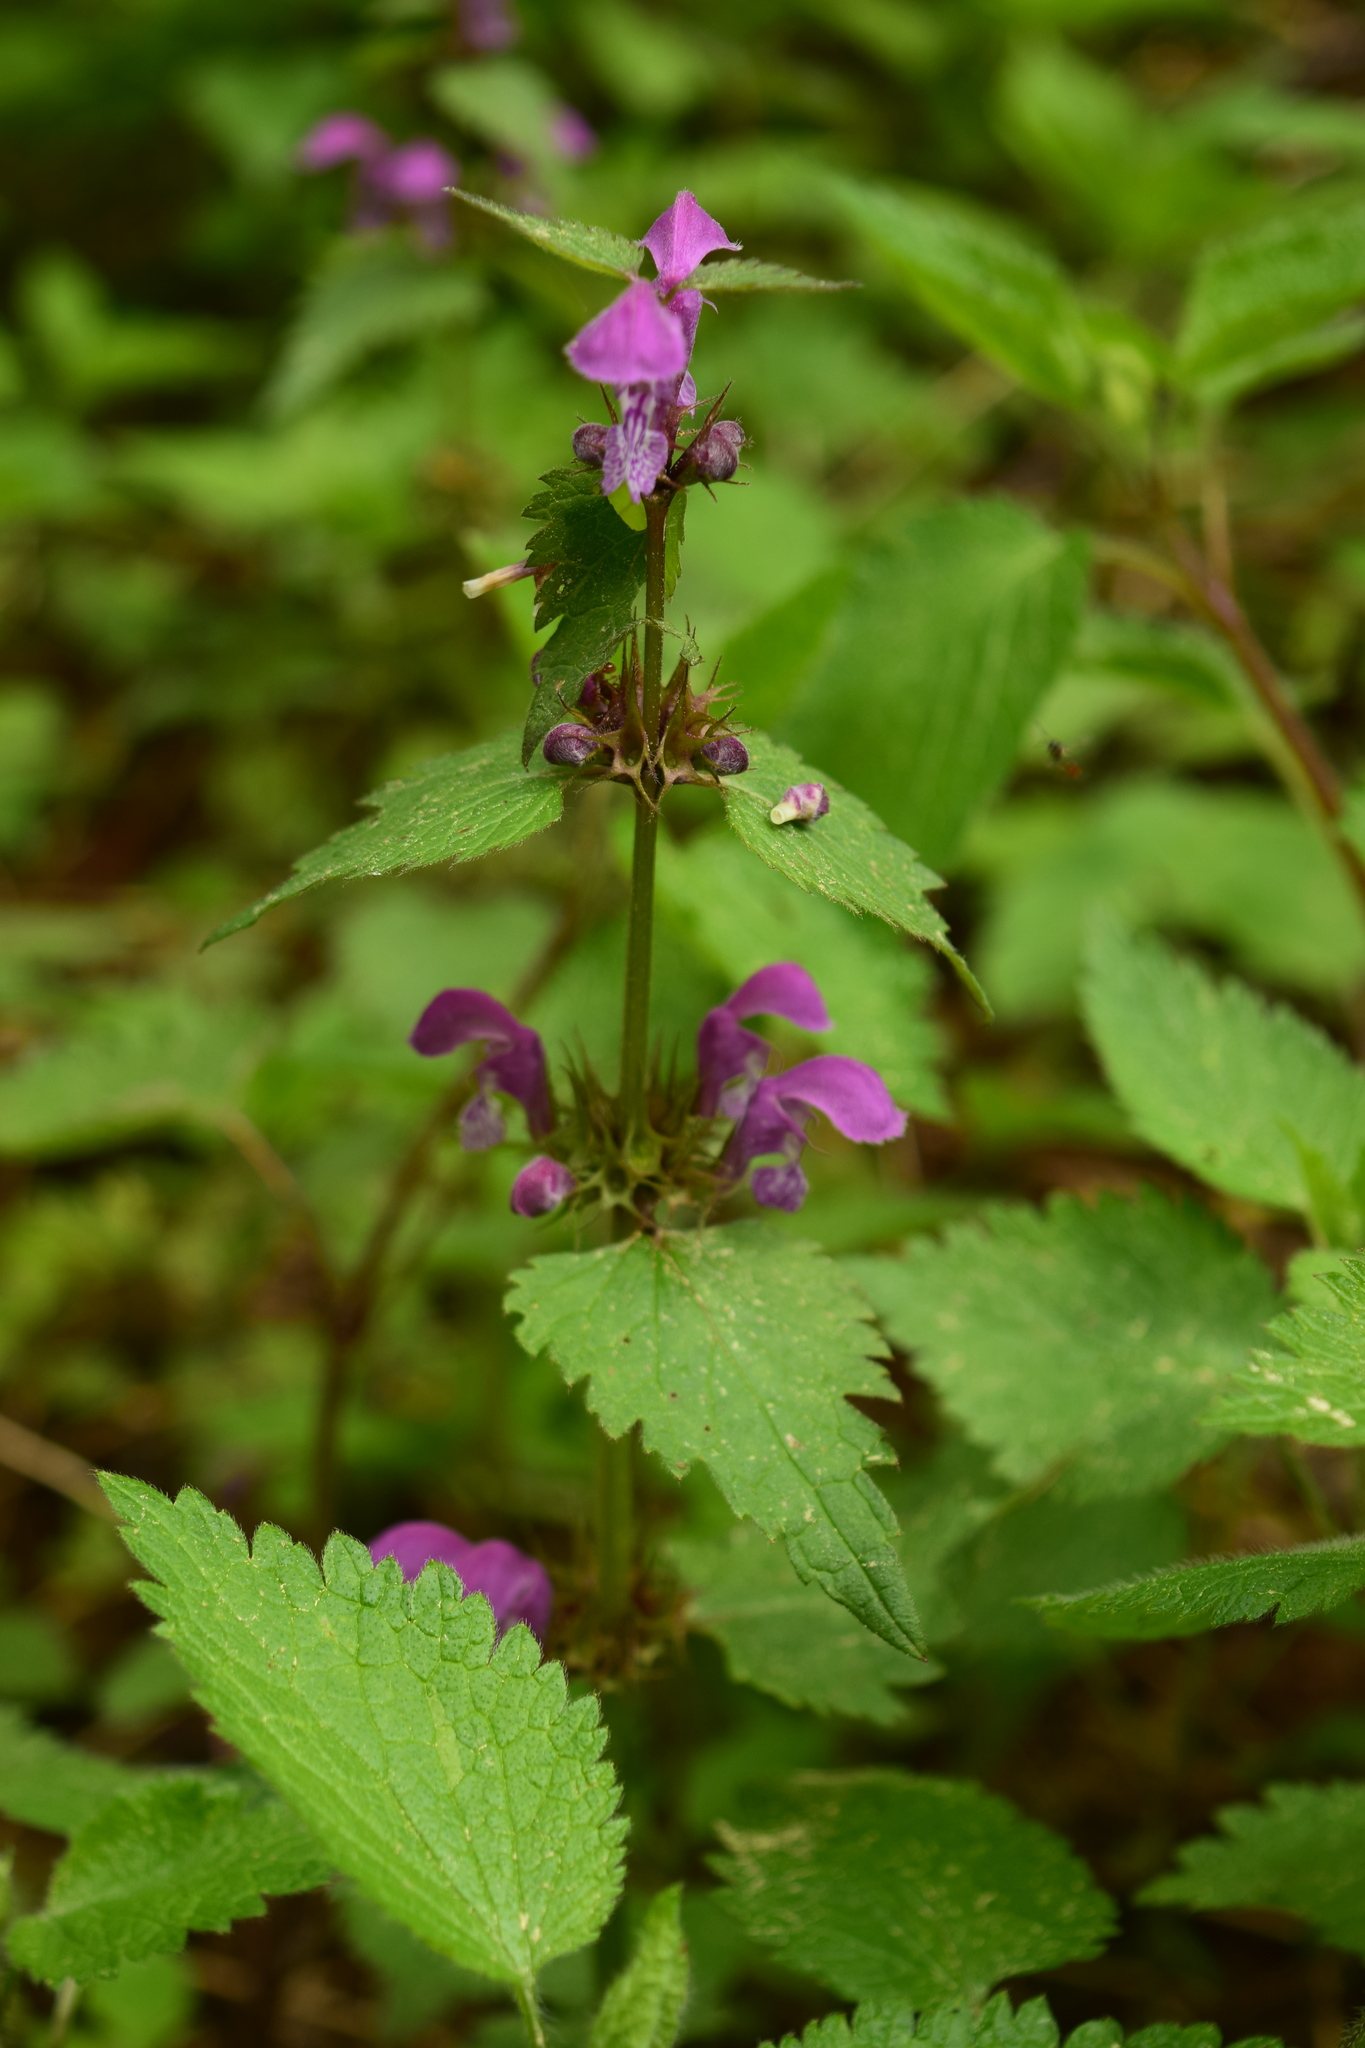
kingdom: Plantae
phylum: Tracheophyta
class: Magnoliopsida
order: Lamiales
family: Lamiaceae
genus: Lamium
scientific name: Lamium maculatum
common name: Spotted dead-nettle
